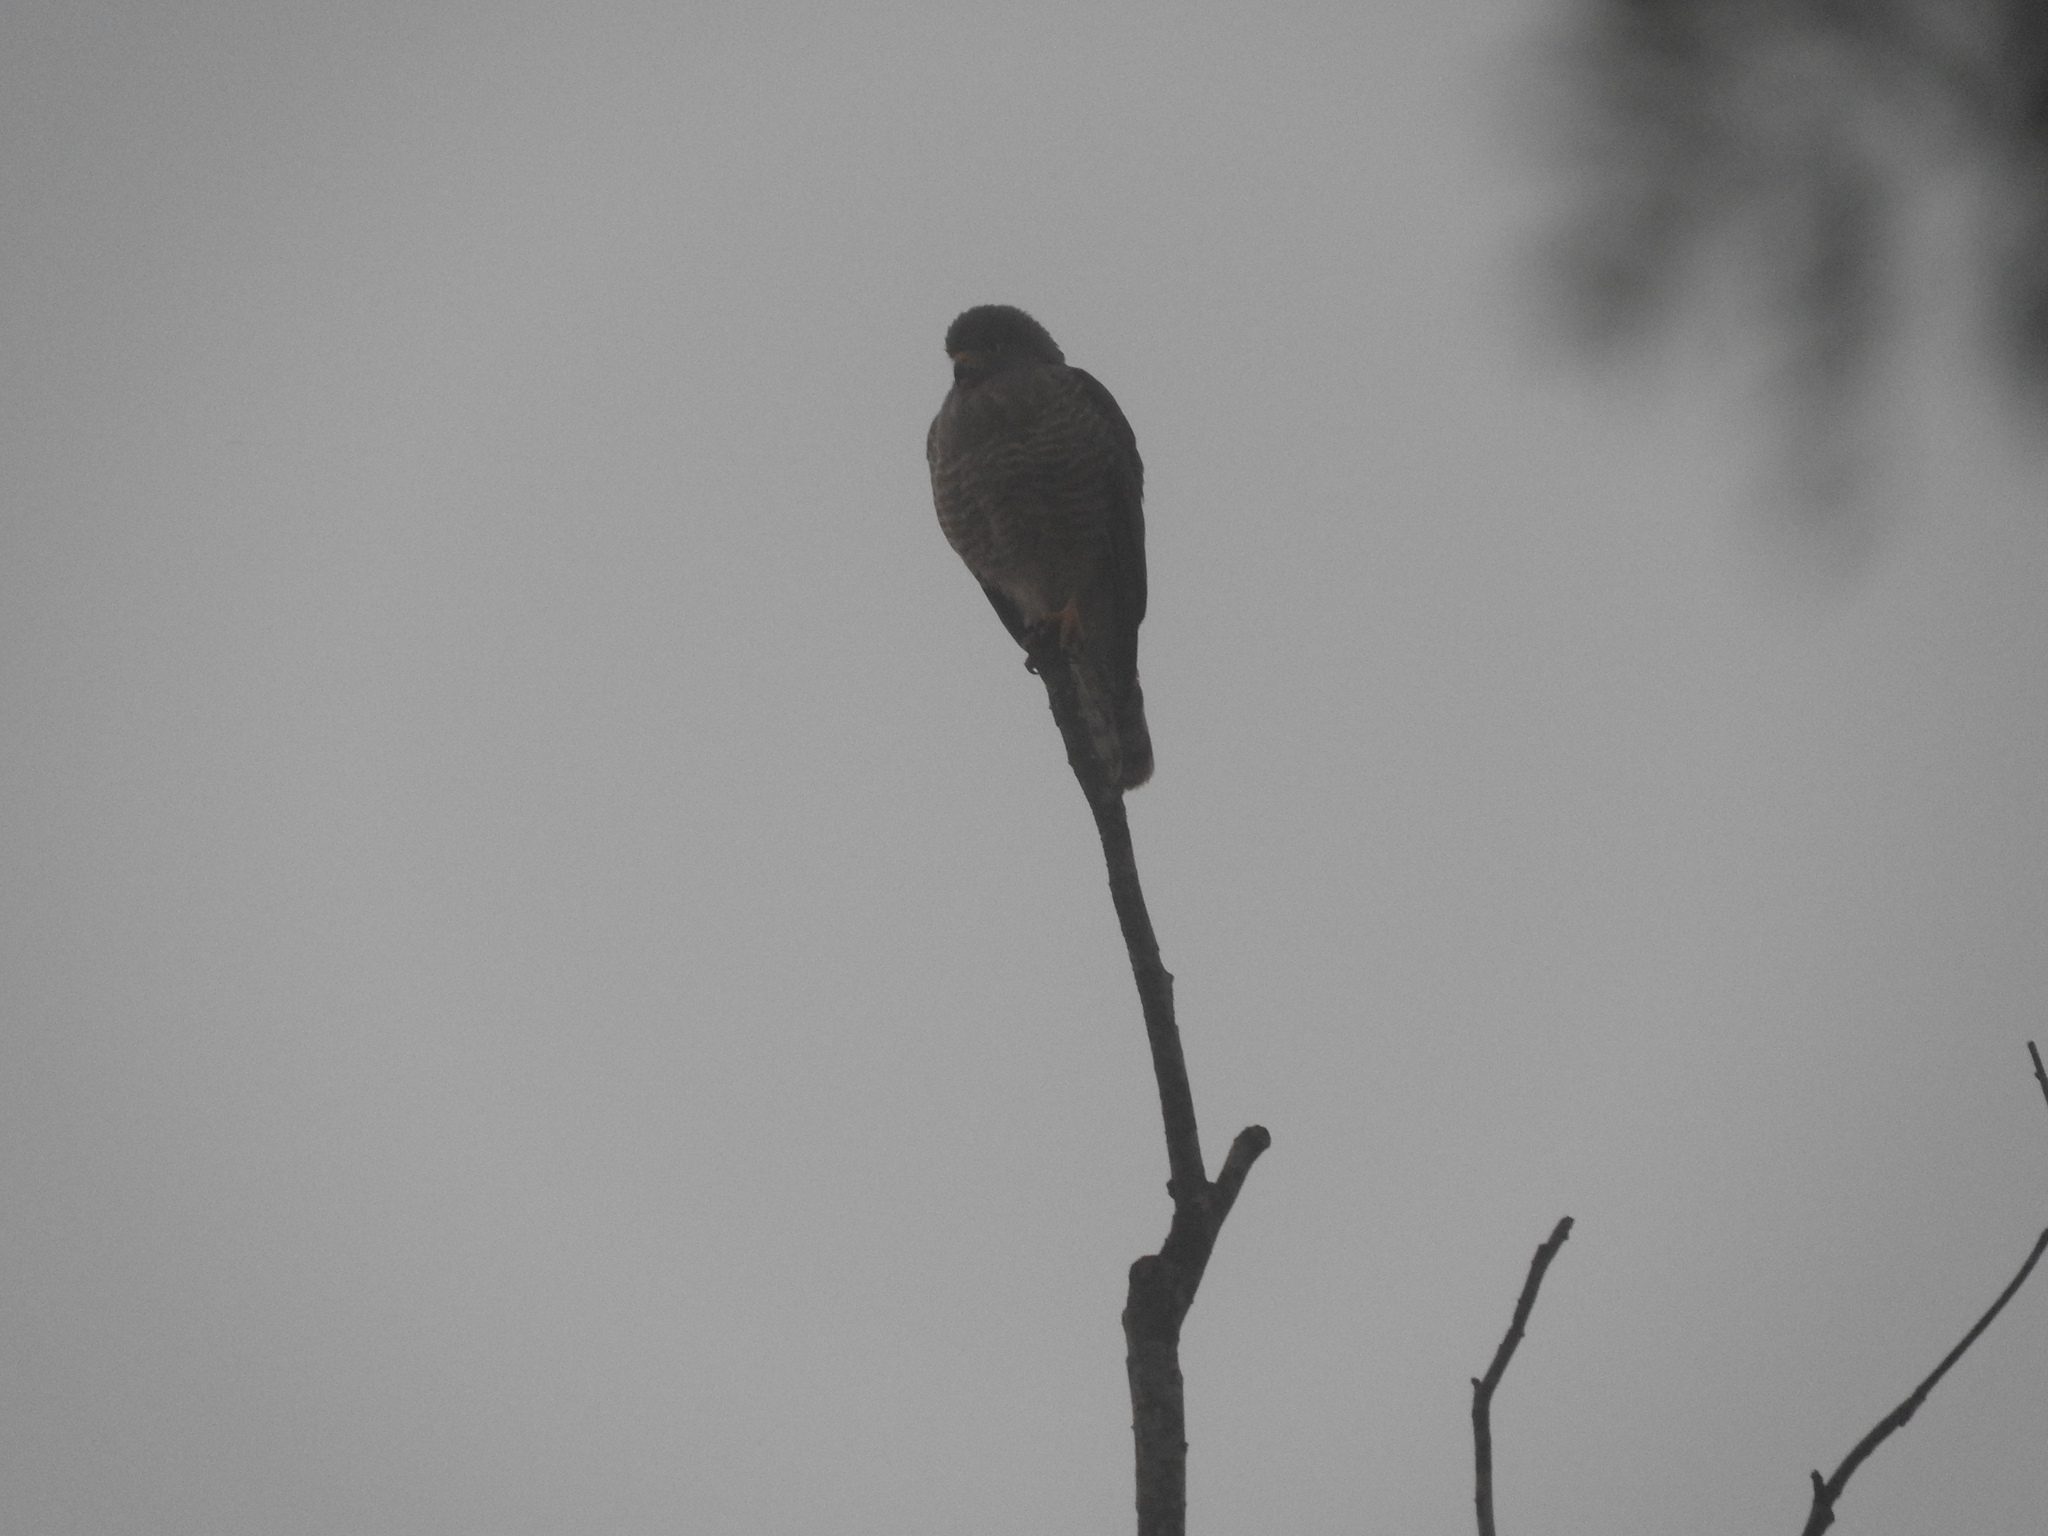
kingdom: Animalia
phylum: Chordata
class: Aves
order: Accipitriformes
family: Accipitridae
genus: Rupornis
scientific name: Rupornis magnirostris
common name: Roadside hawk
